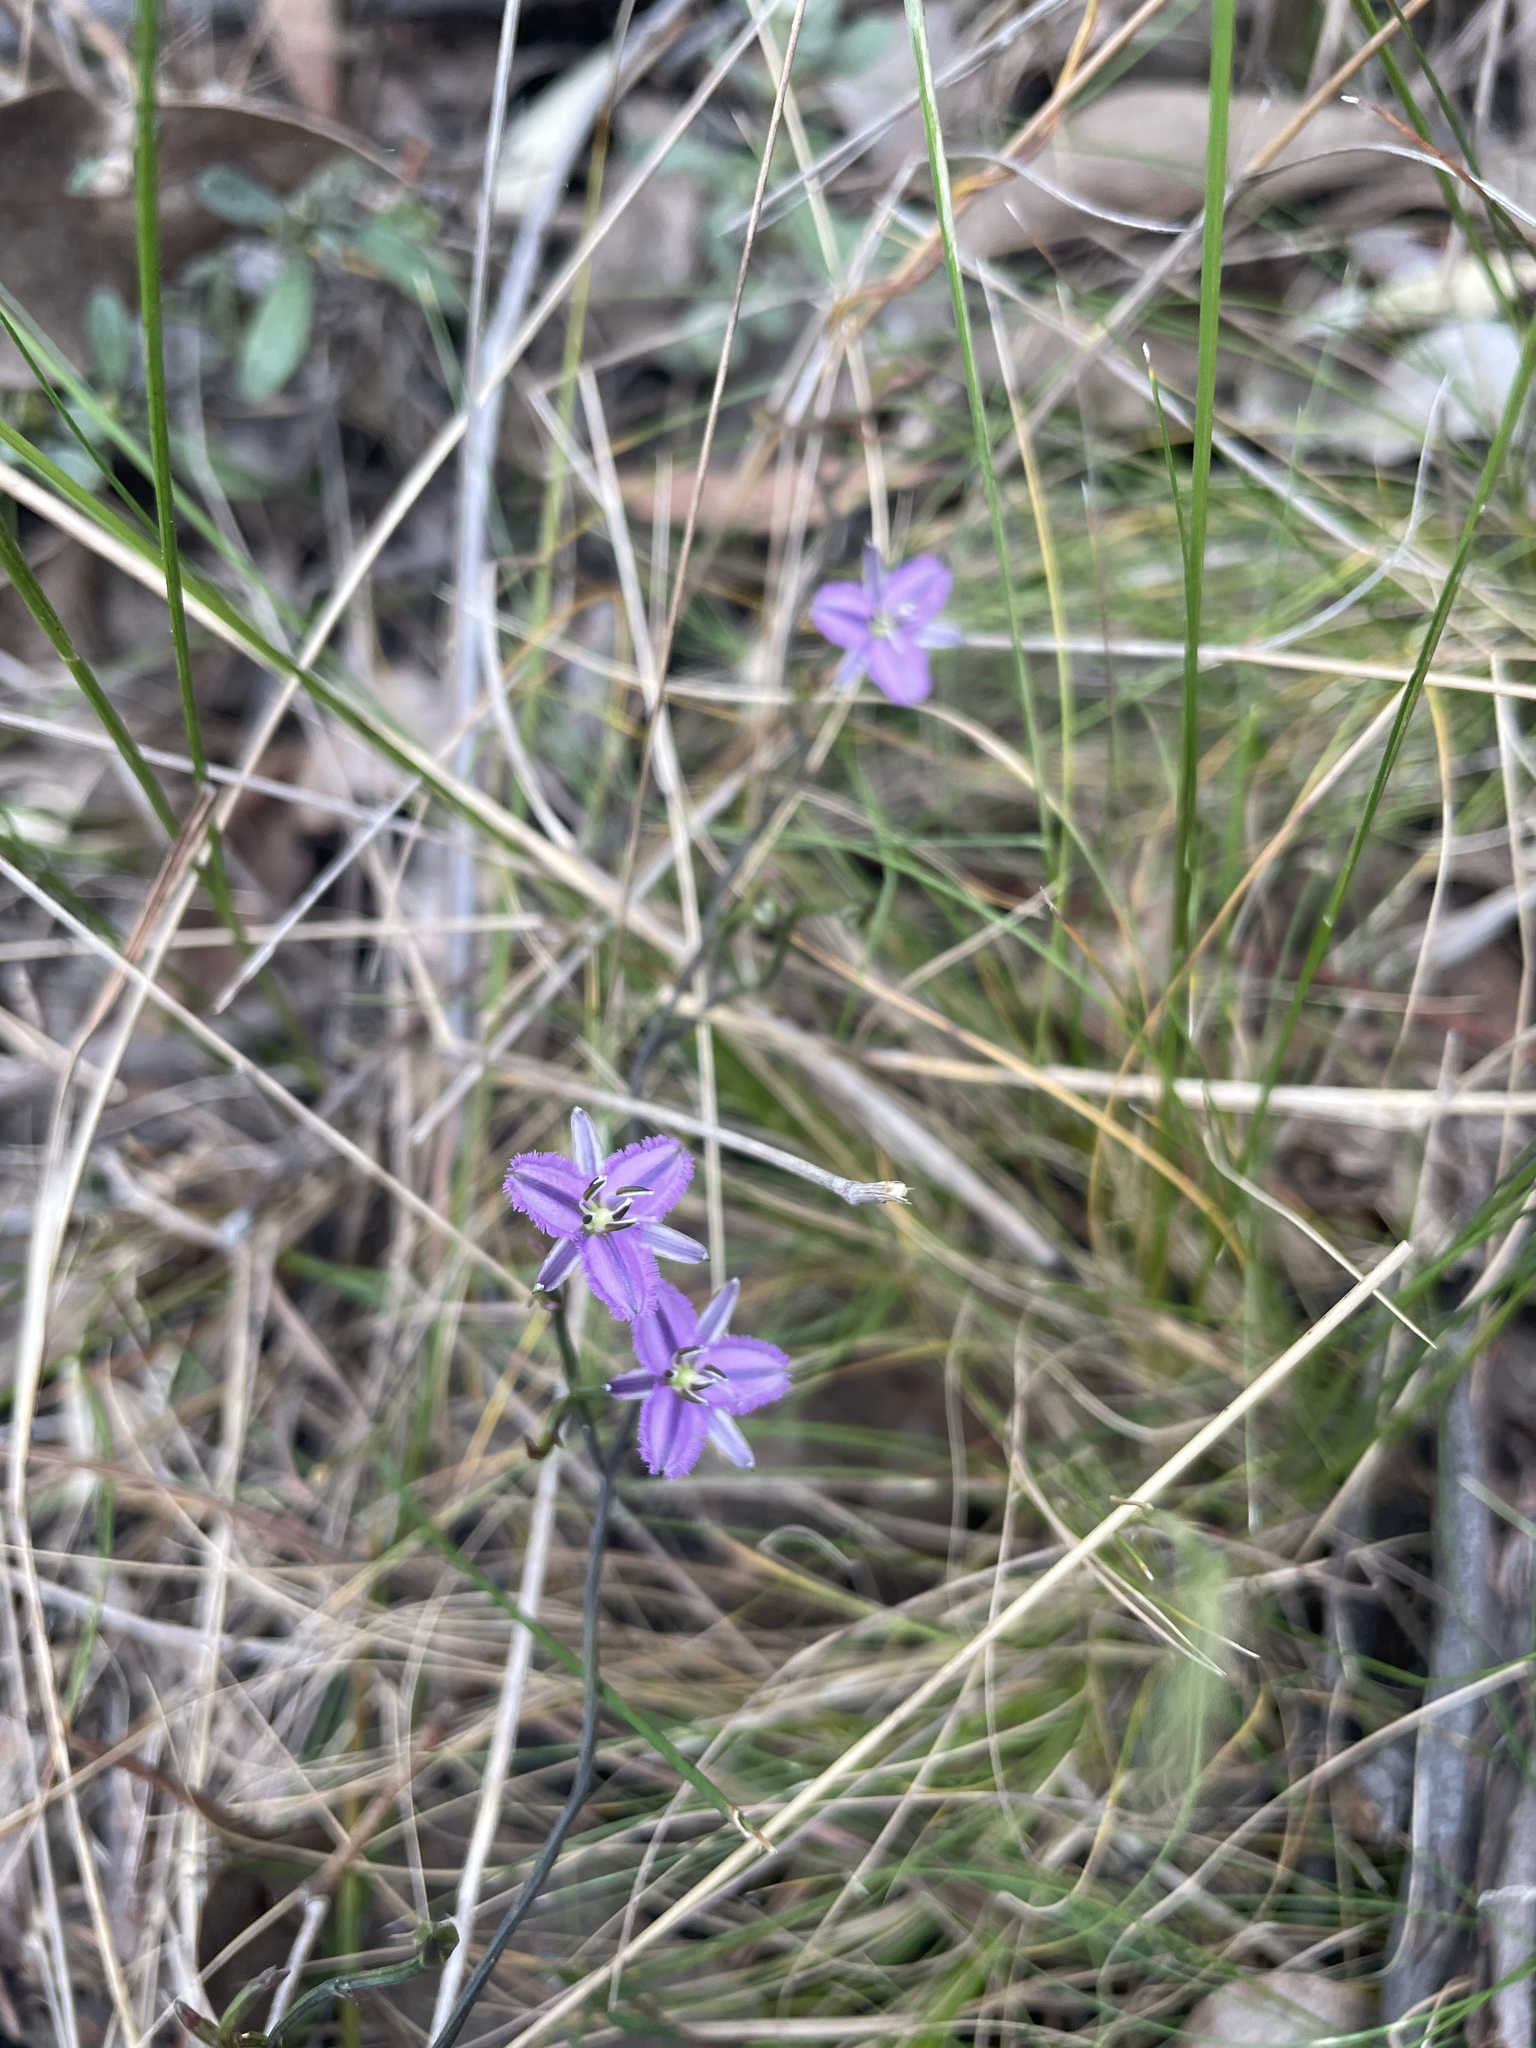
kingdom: Plantae
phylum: Tracheophyta
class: Liliopsida
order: Asparagales
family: Asparagaceae
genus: Thysanotus
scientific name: Thysanotus patersonii
